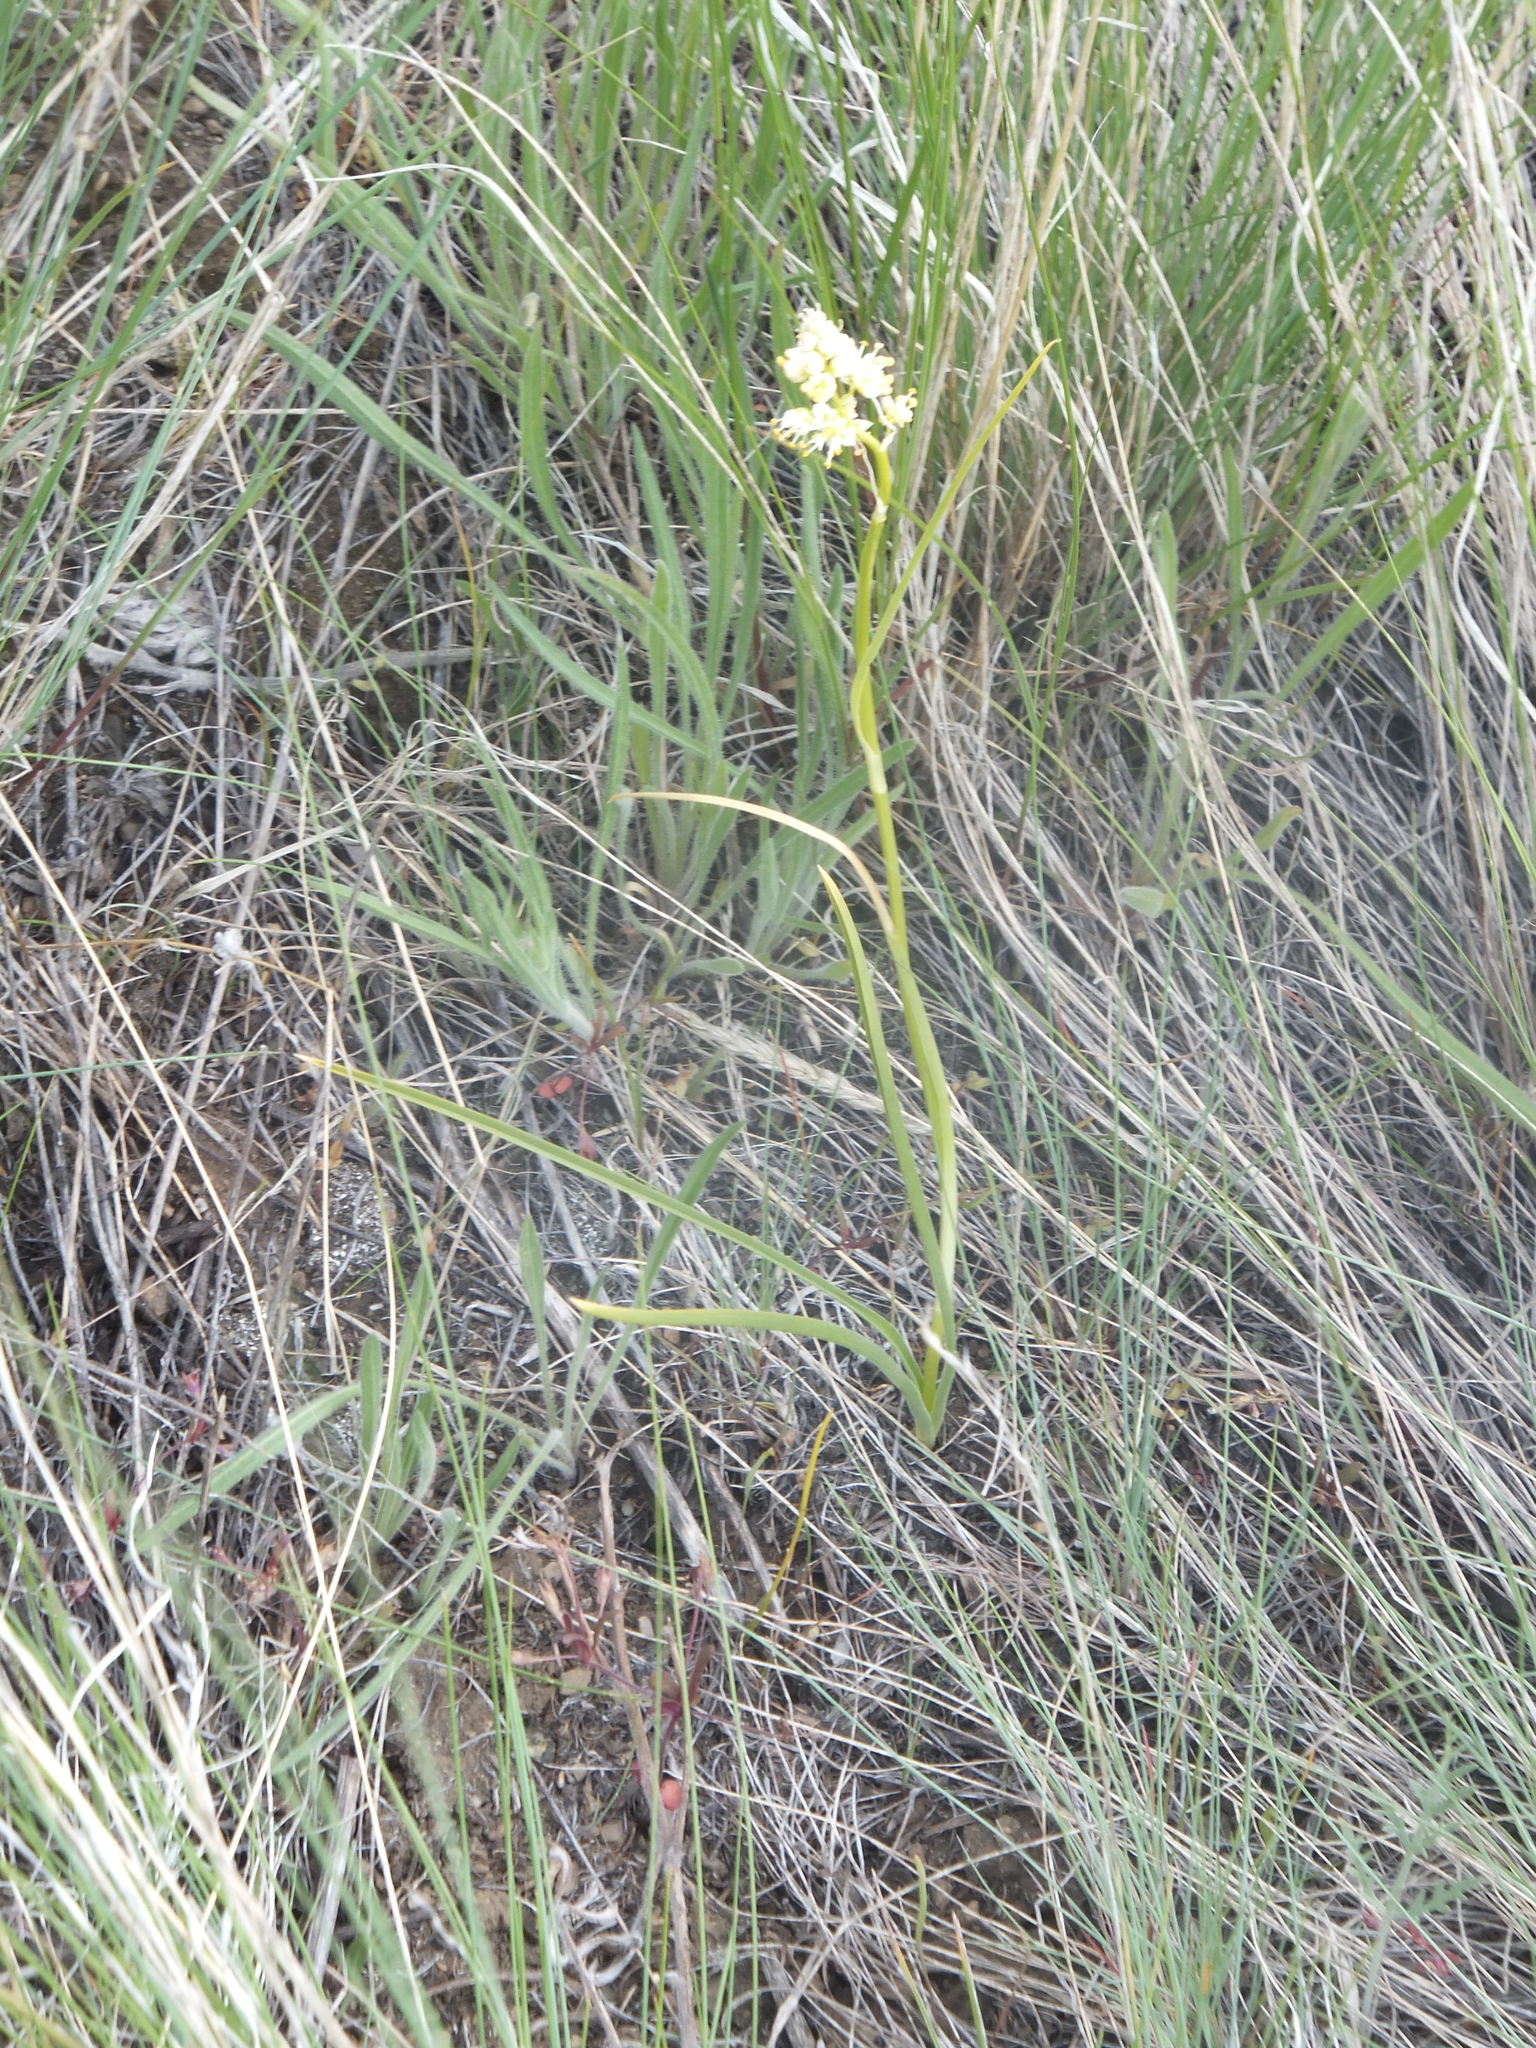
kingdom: Plantae
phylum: Tracheophyta
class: Liliopsida
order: Liliales
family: Melanthiaceae
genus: Toxicoscordion
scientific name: Toxicoscordion venenosum
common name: Meadow death camas
